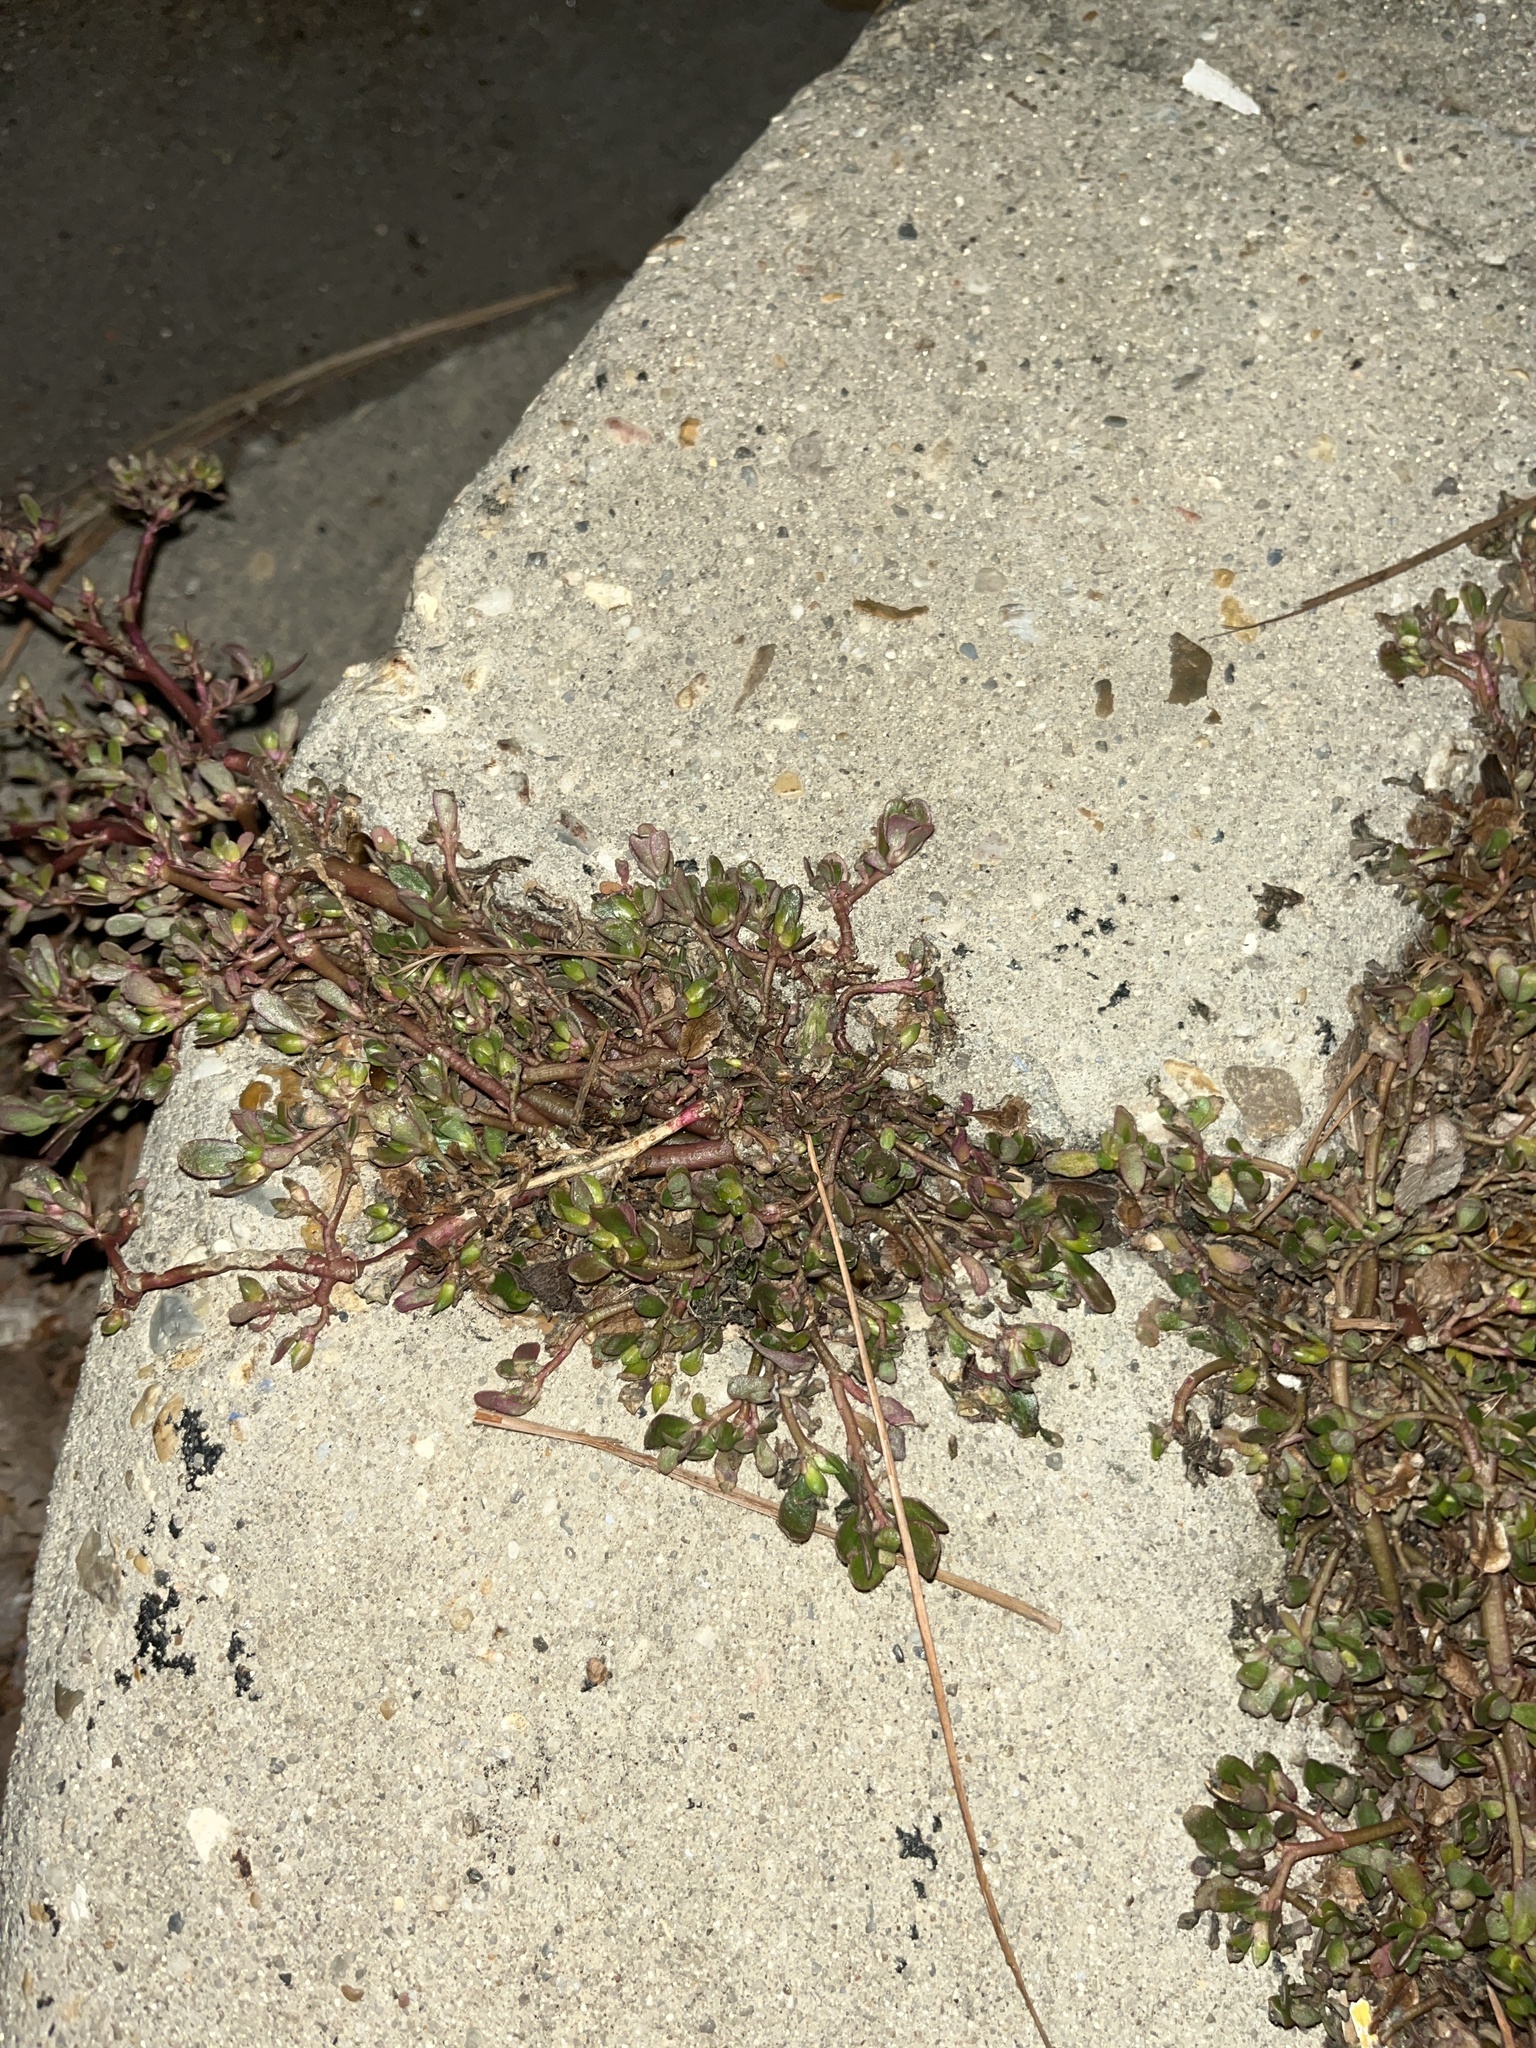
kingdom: Plantae
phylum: Tracheophyta
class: Magnoliopsida
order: Caryophyllales
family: Portulacaceae
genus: Portulaca
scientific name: Portulaca oleracea
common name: Common purslane
